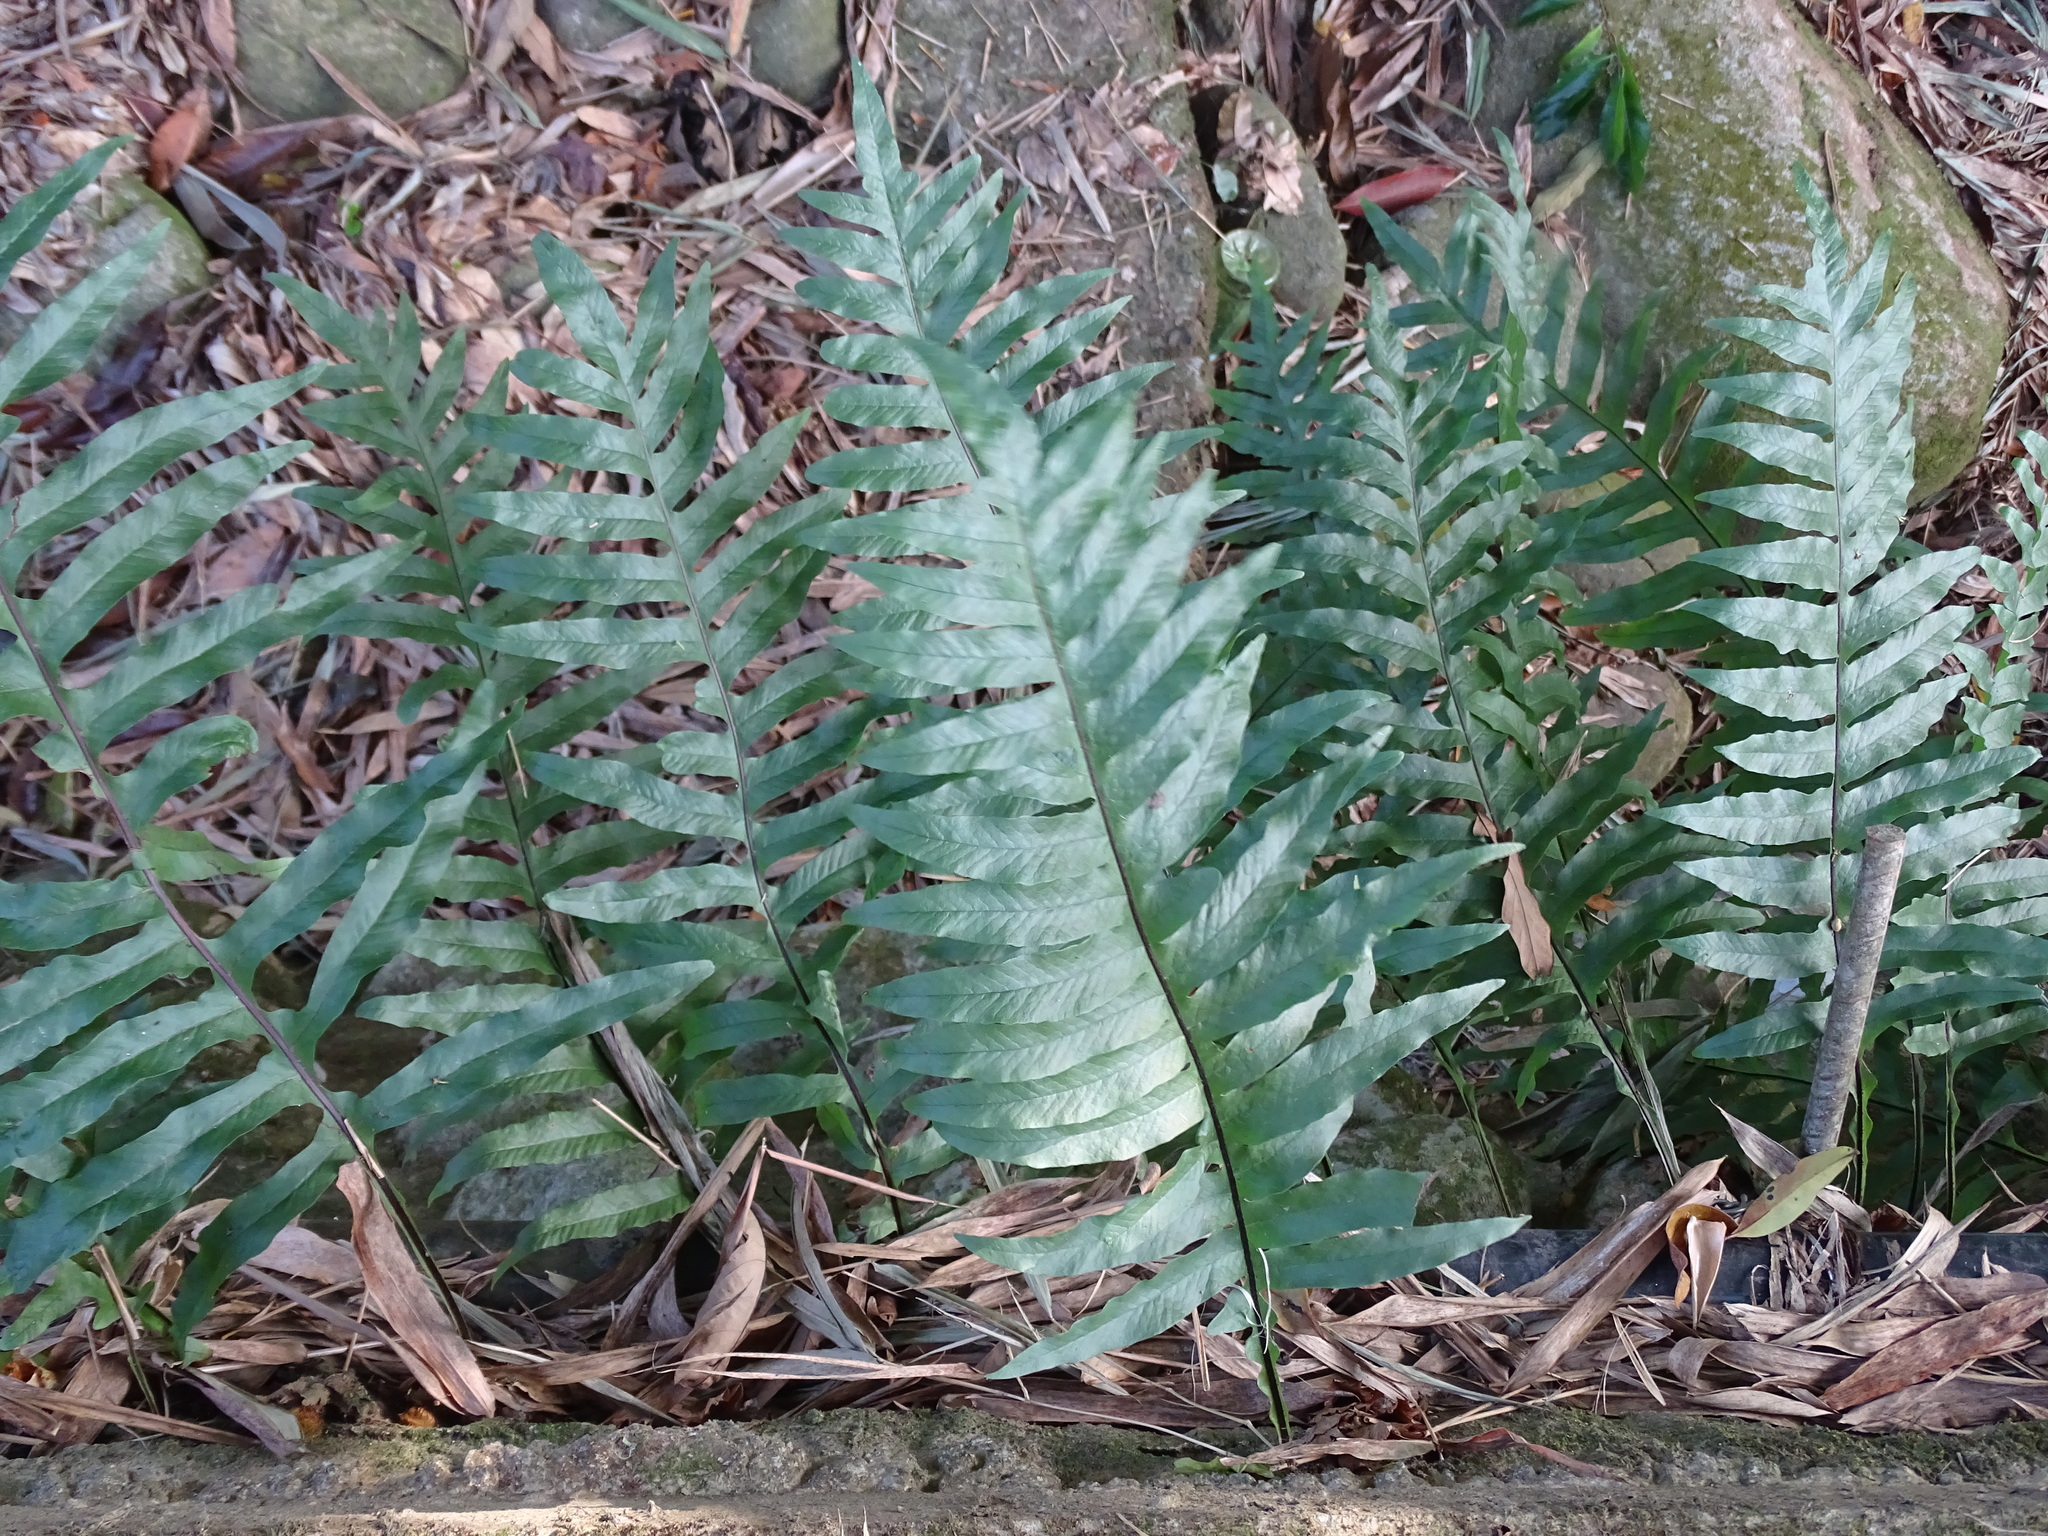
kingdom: Plantae
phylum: Tracheophyta
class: Polypodiopsida
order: Polypodiales
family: Polypodiaceae
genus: Drynaria
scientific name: Drynaria roosii
